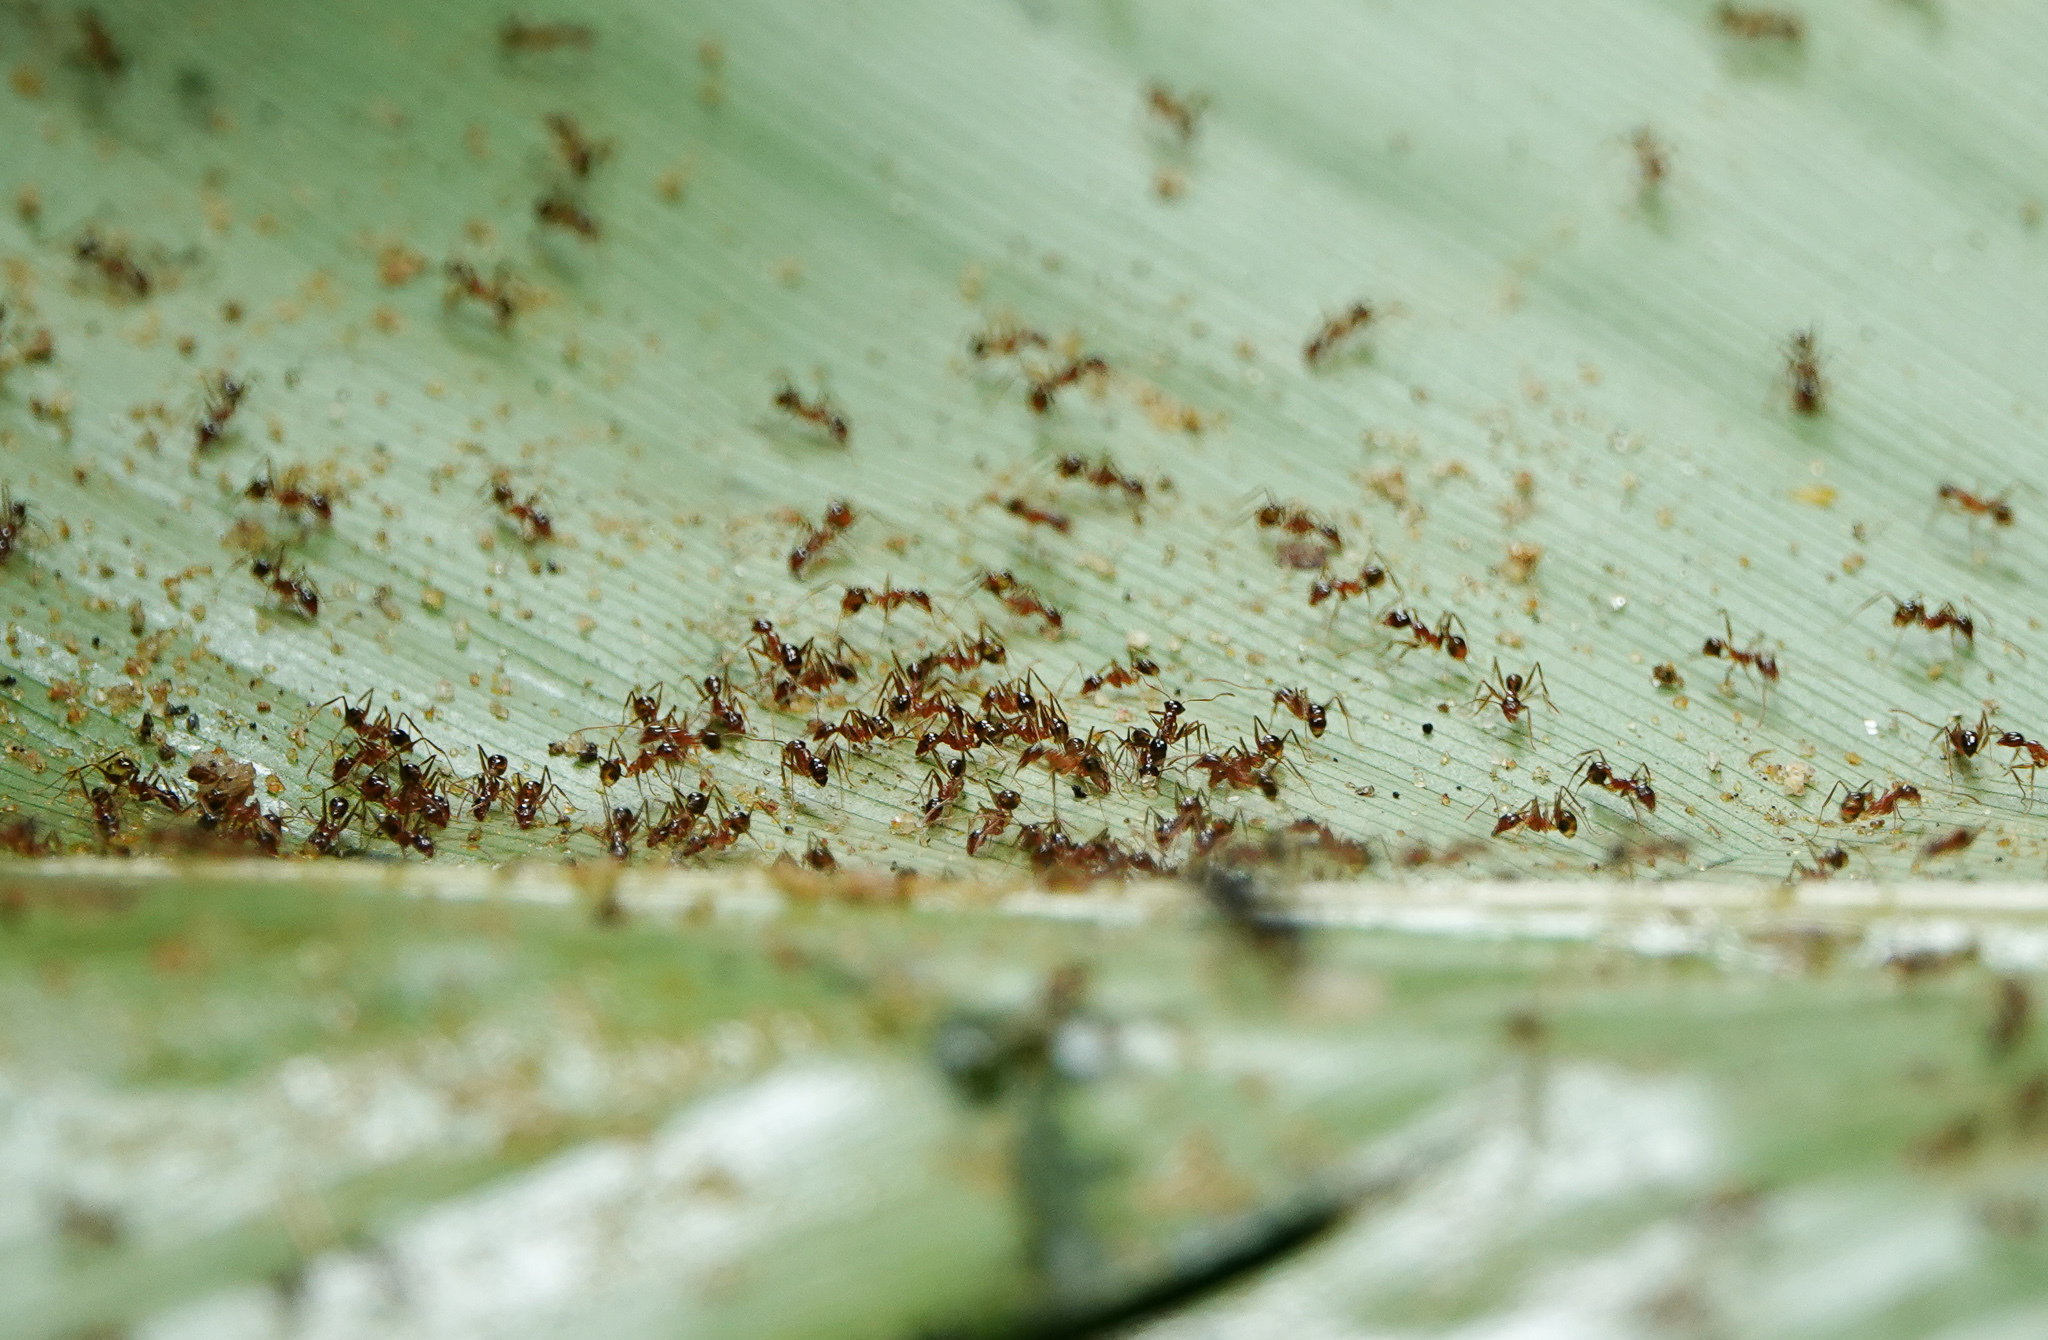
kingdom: Animalia
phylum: Arthropoda
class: Insecta
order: Hymenoptera
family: Formicidae
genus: Pheidole
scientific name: Pheidole
